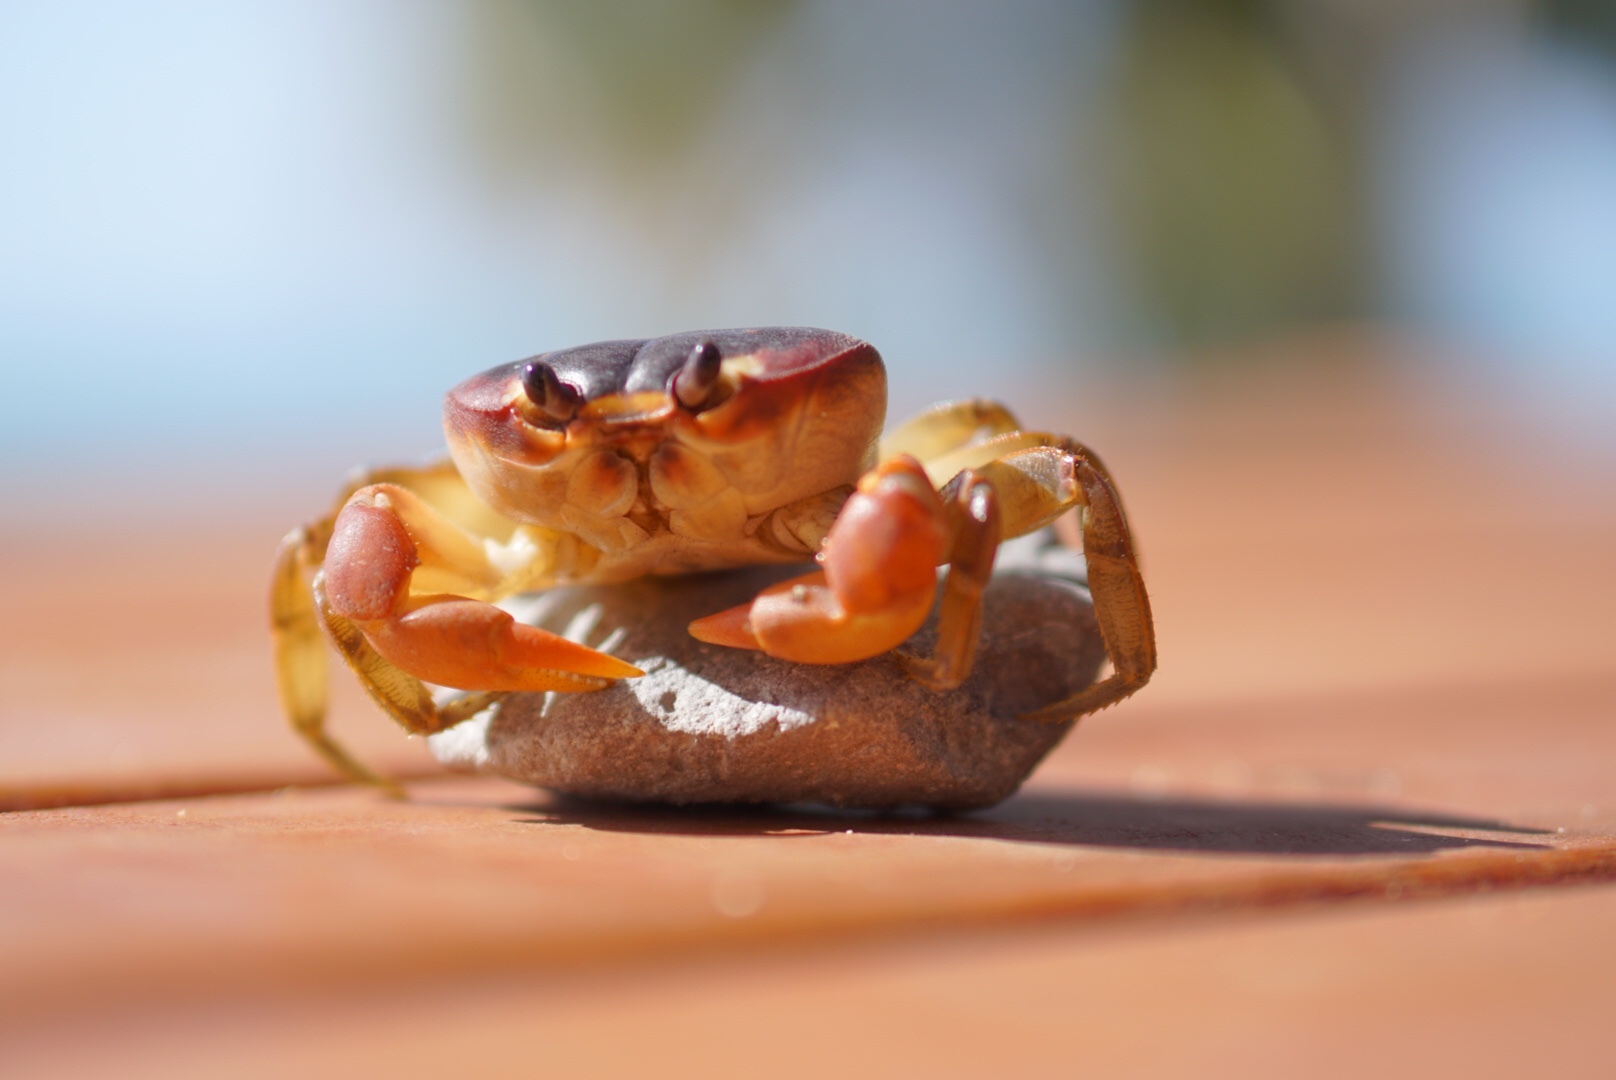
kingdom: Animalia
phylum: Arthropoda
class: Malacostraca
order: Decapoda
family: Gecarcinidae
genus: Gecarcinus
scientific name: Gecarcinus lateralis
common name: Bermuda land crab
